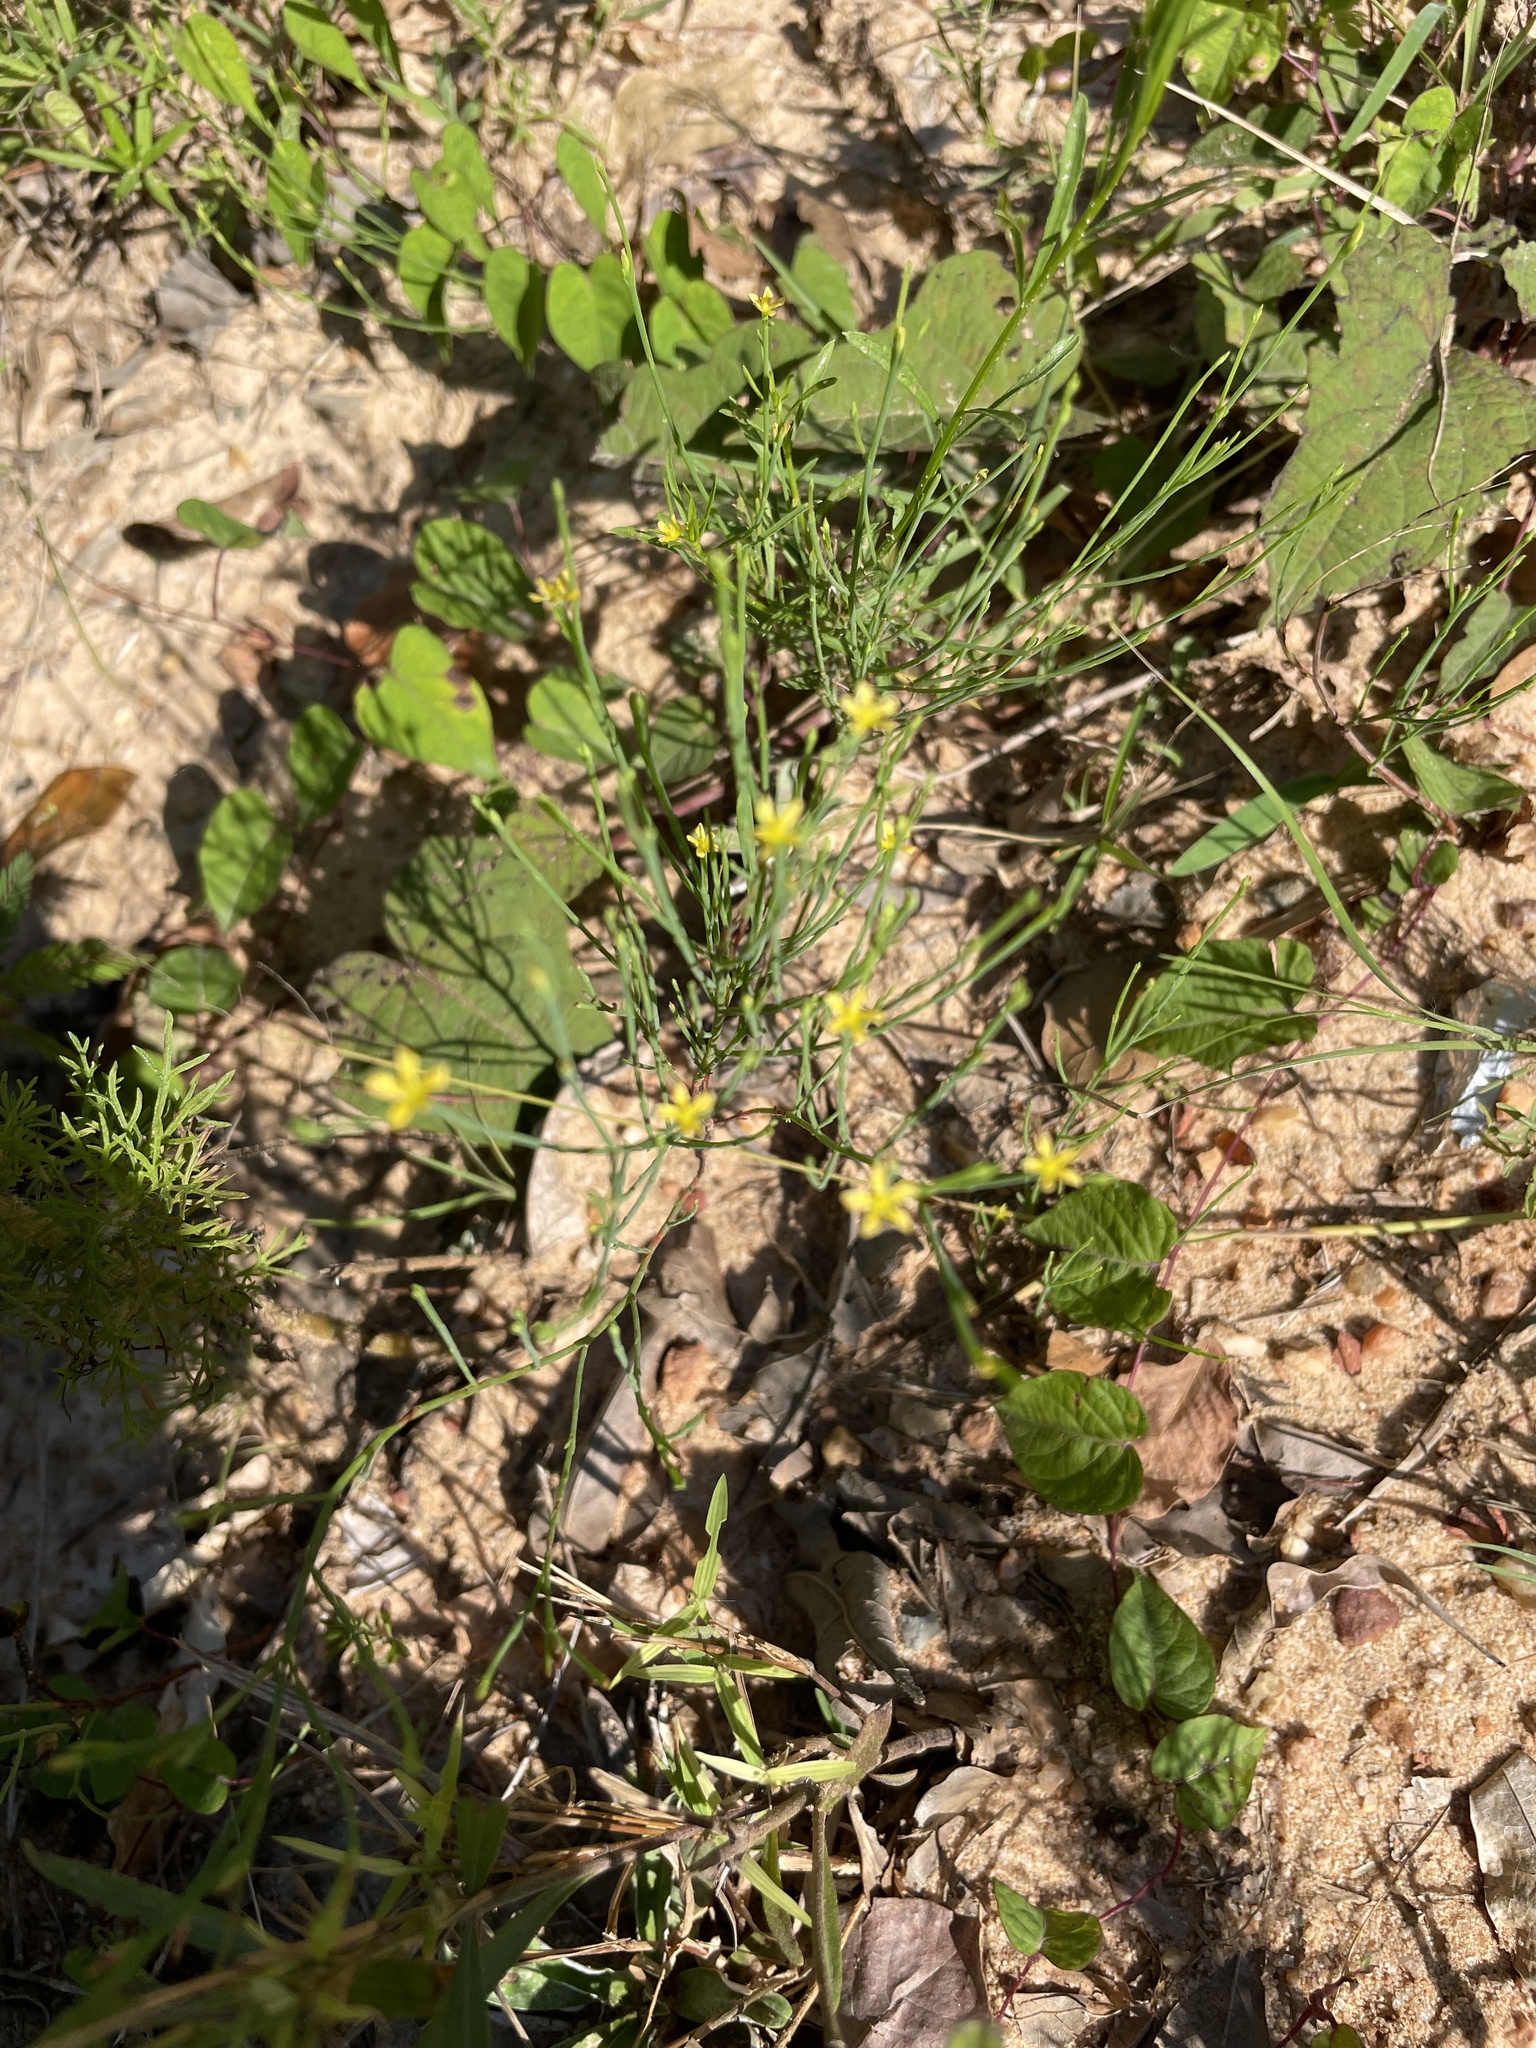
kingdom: Plantae
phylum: Tracheophyta
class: Magnoliopsida
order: Malpighiales
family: Hypericaceae
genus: Hypericum
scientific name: Hypericum gentianoides
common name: Gentian-leaved st. john's-wort
